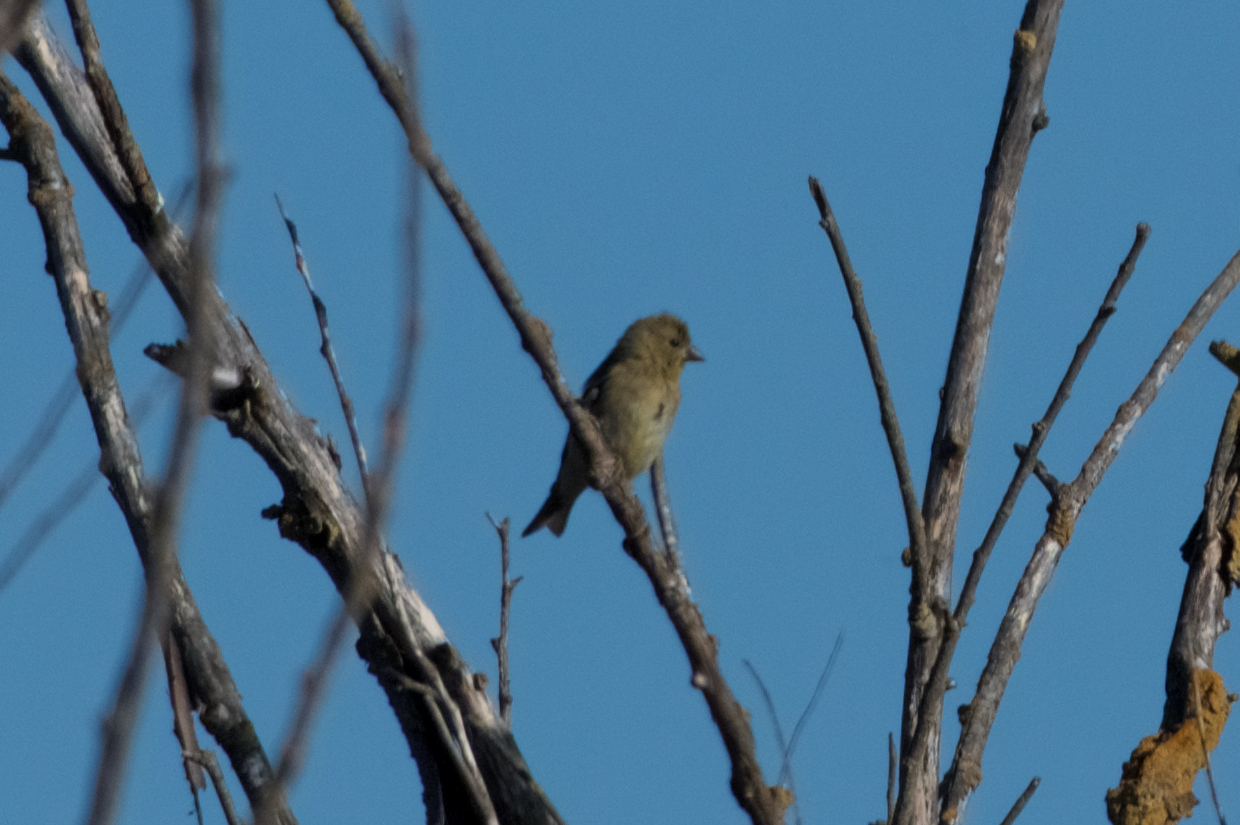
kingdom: Animalia
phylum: Chordata
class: Aves
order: Passeriformes
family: Fringillidae
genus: Spinus
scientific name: Spinus tristis
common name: American goldfinch
